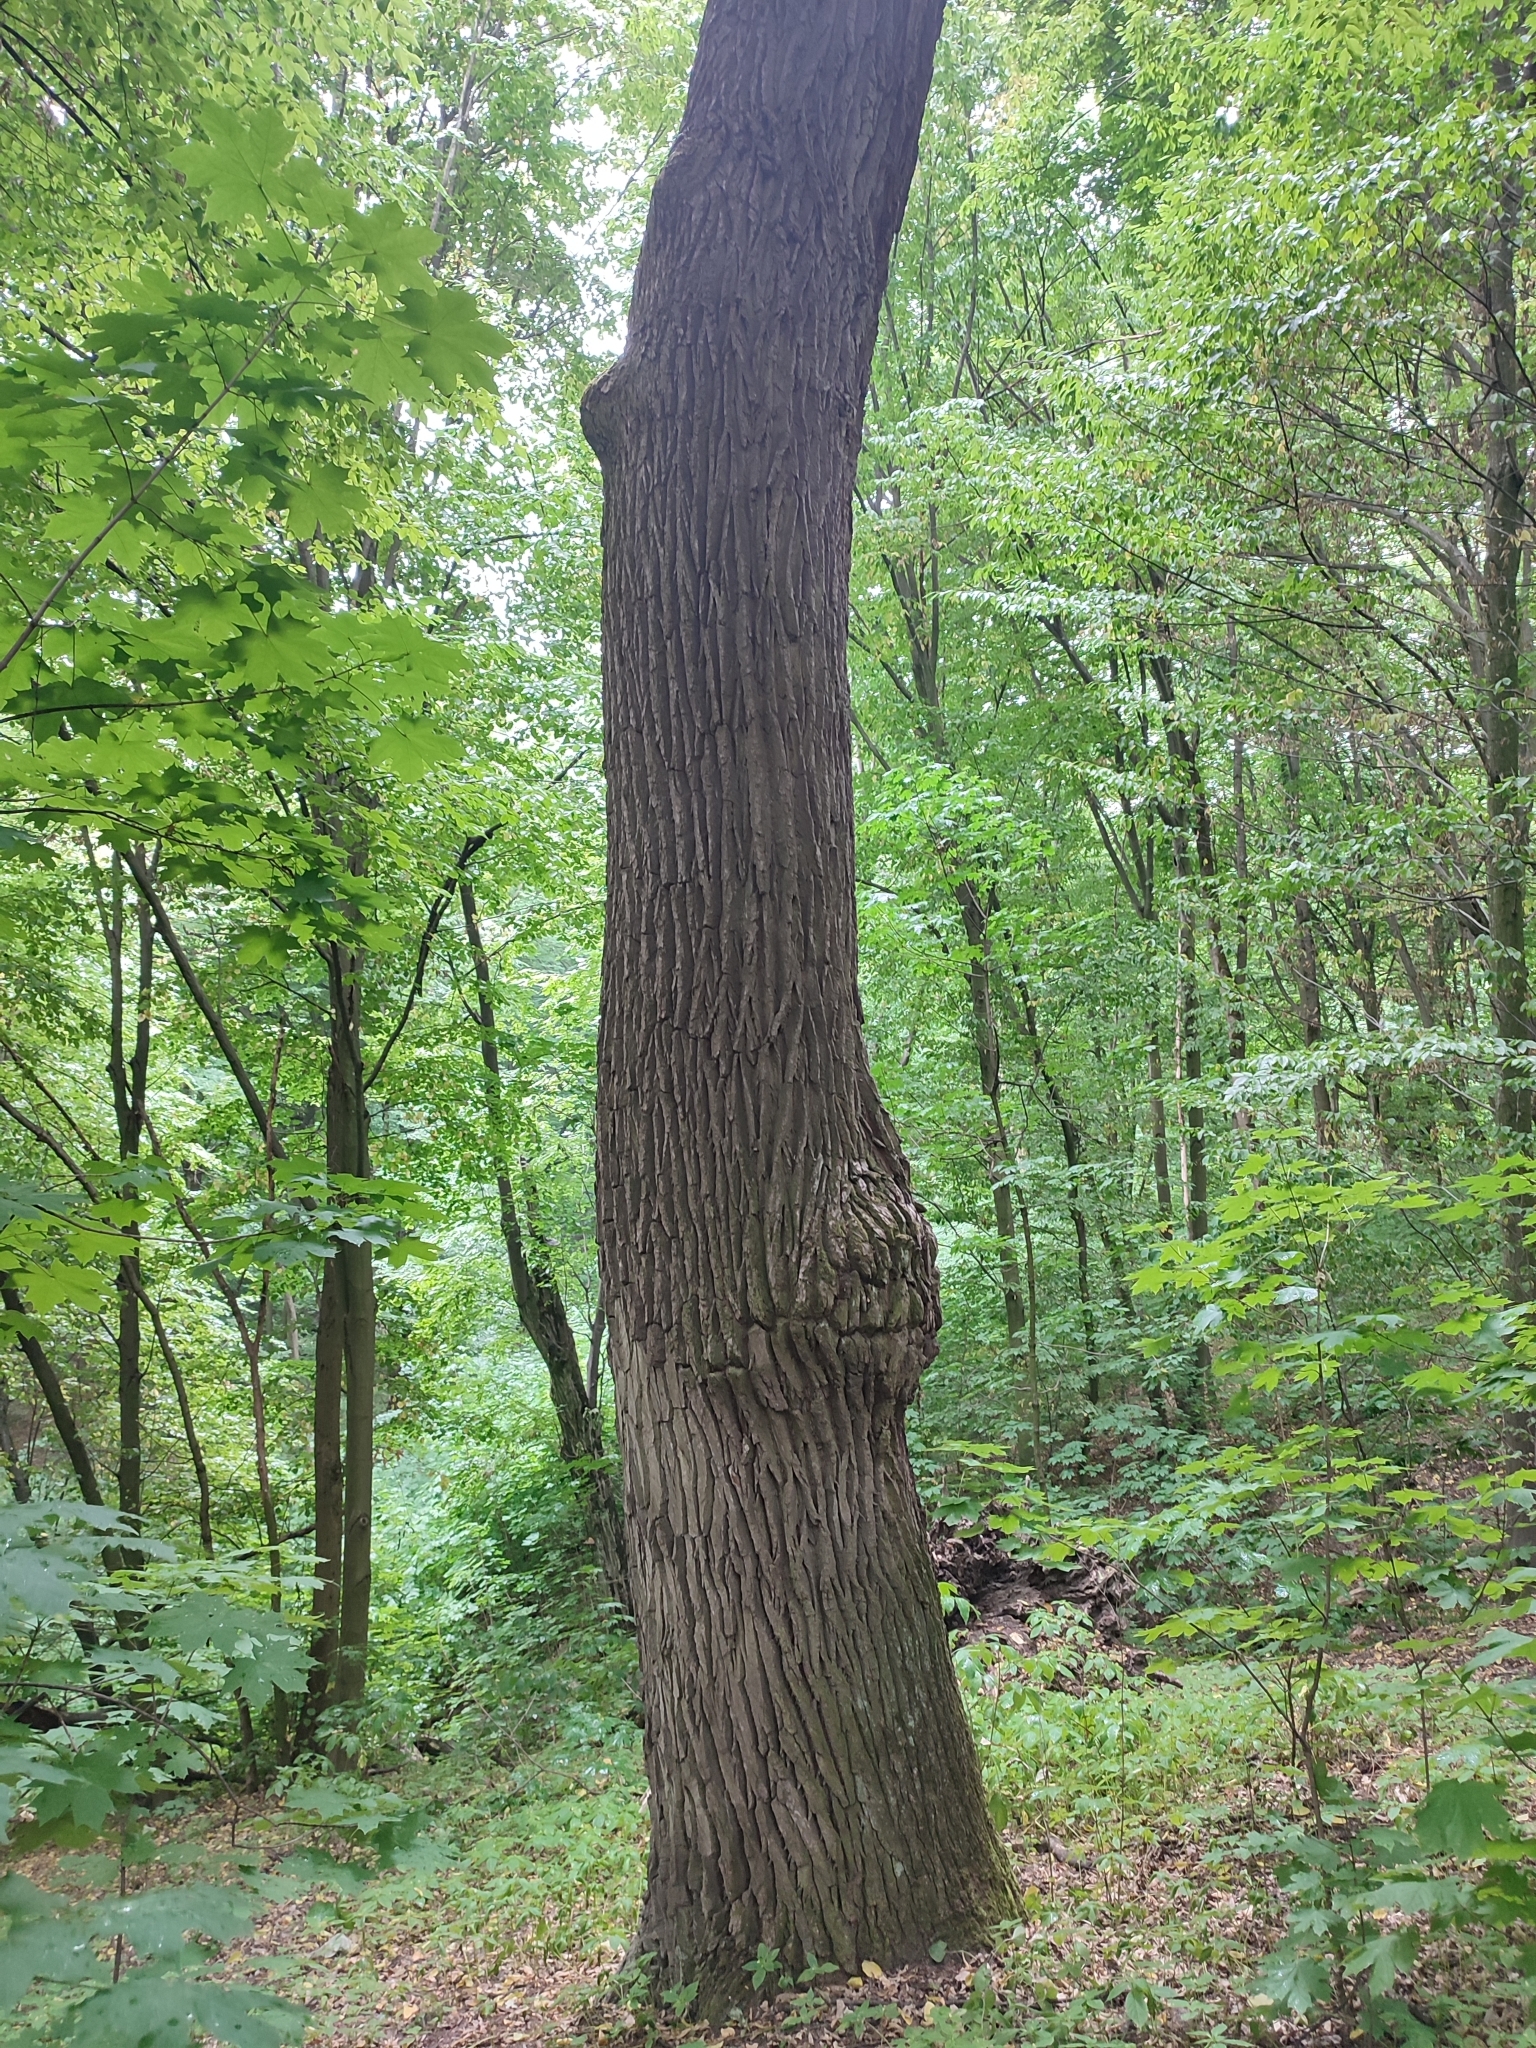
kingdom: Plantae
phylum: Tracheophyta
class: Magnoliopsida
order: Fagales
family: Fagaceae
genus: Quercus
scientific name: Quercus robur
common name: Pedunculate oak
